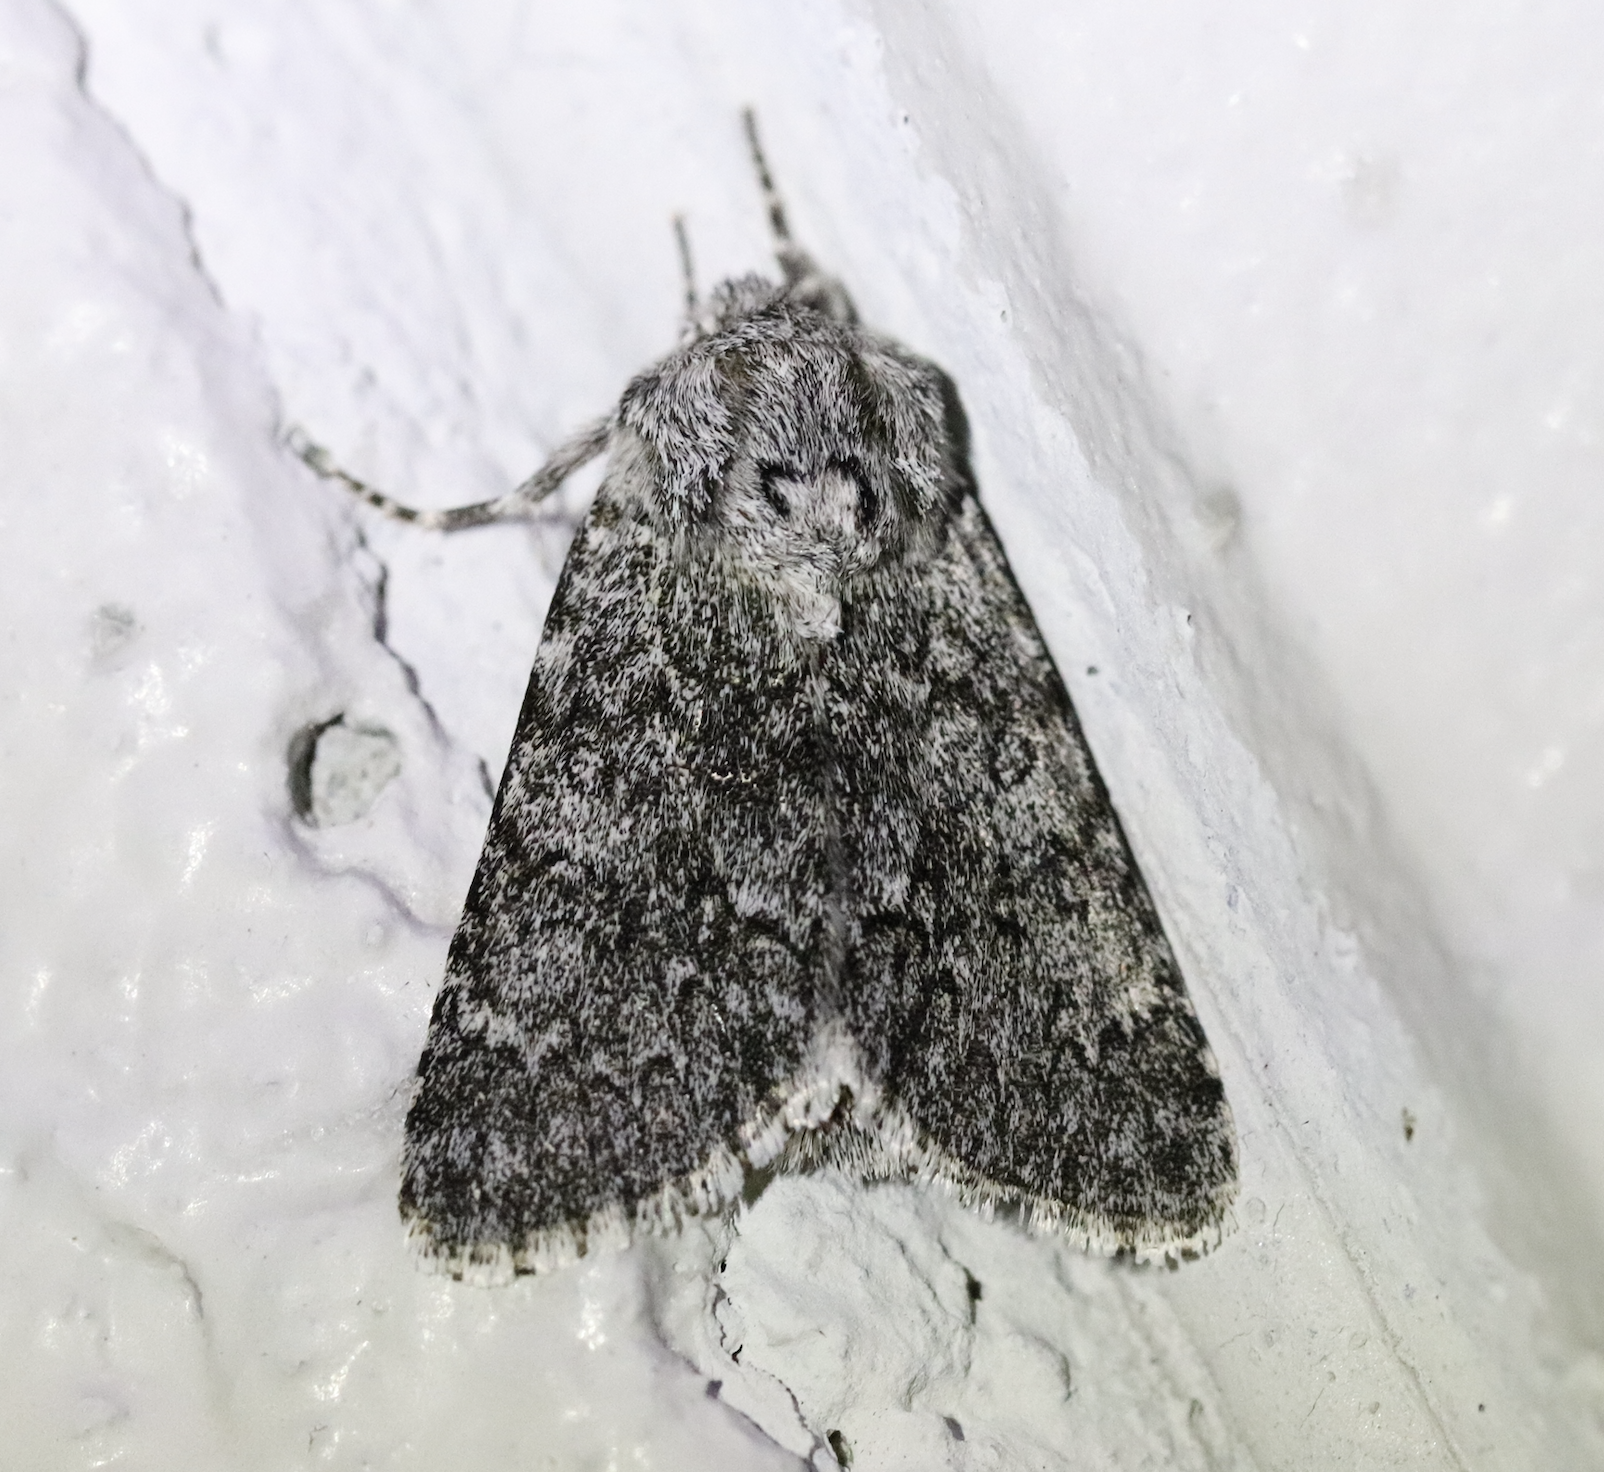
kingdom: Animalia
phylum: Arthropoda
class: Insecta
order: Lepidoptera
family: Noctuidae
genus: Acronicta
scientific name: Acronicta euphorbiae
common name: Sweet gale moth
